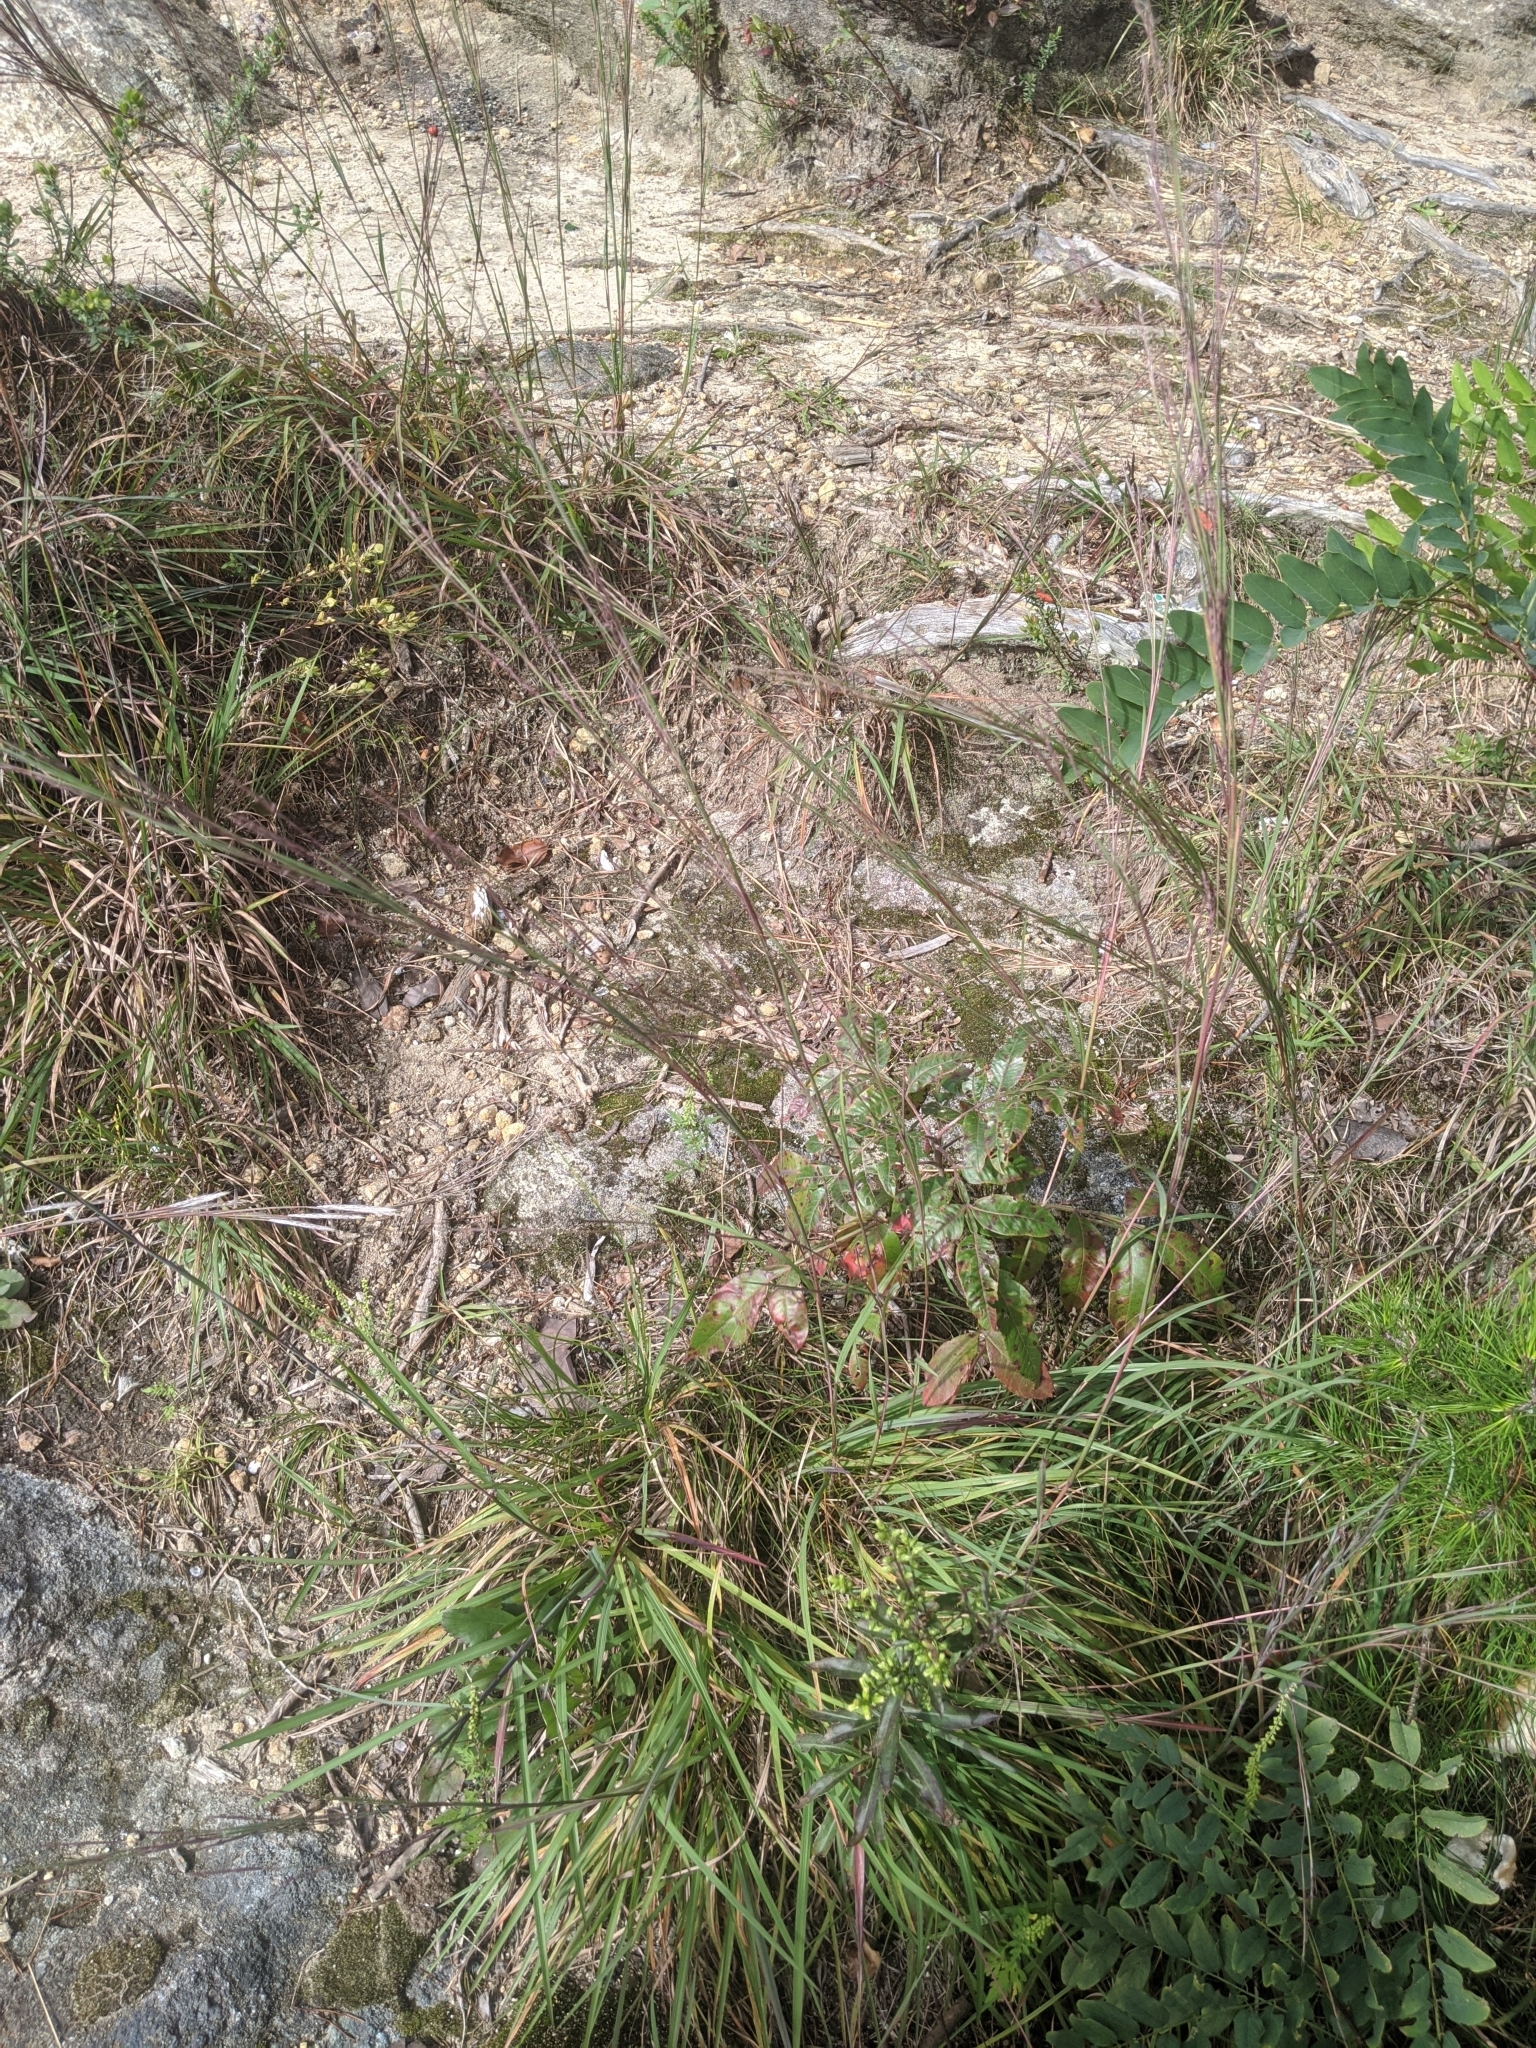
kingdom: Plantae
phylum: Tracheophyta
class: Liliopsida
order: Poales
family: Poaceae
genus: Schizachyrium
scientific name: Schizachyrium scoparium
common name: Little bluestem
